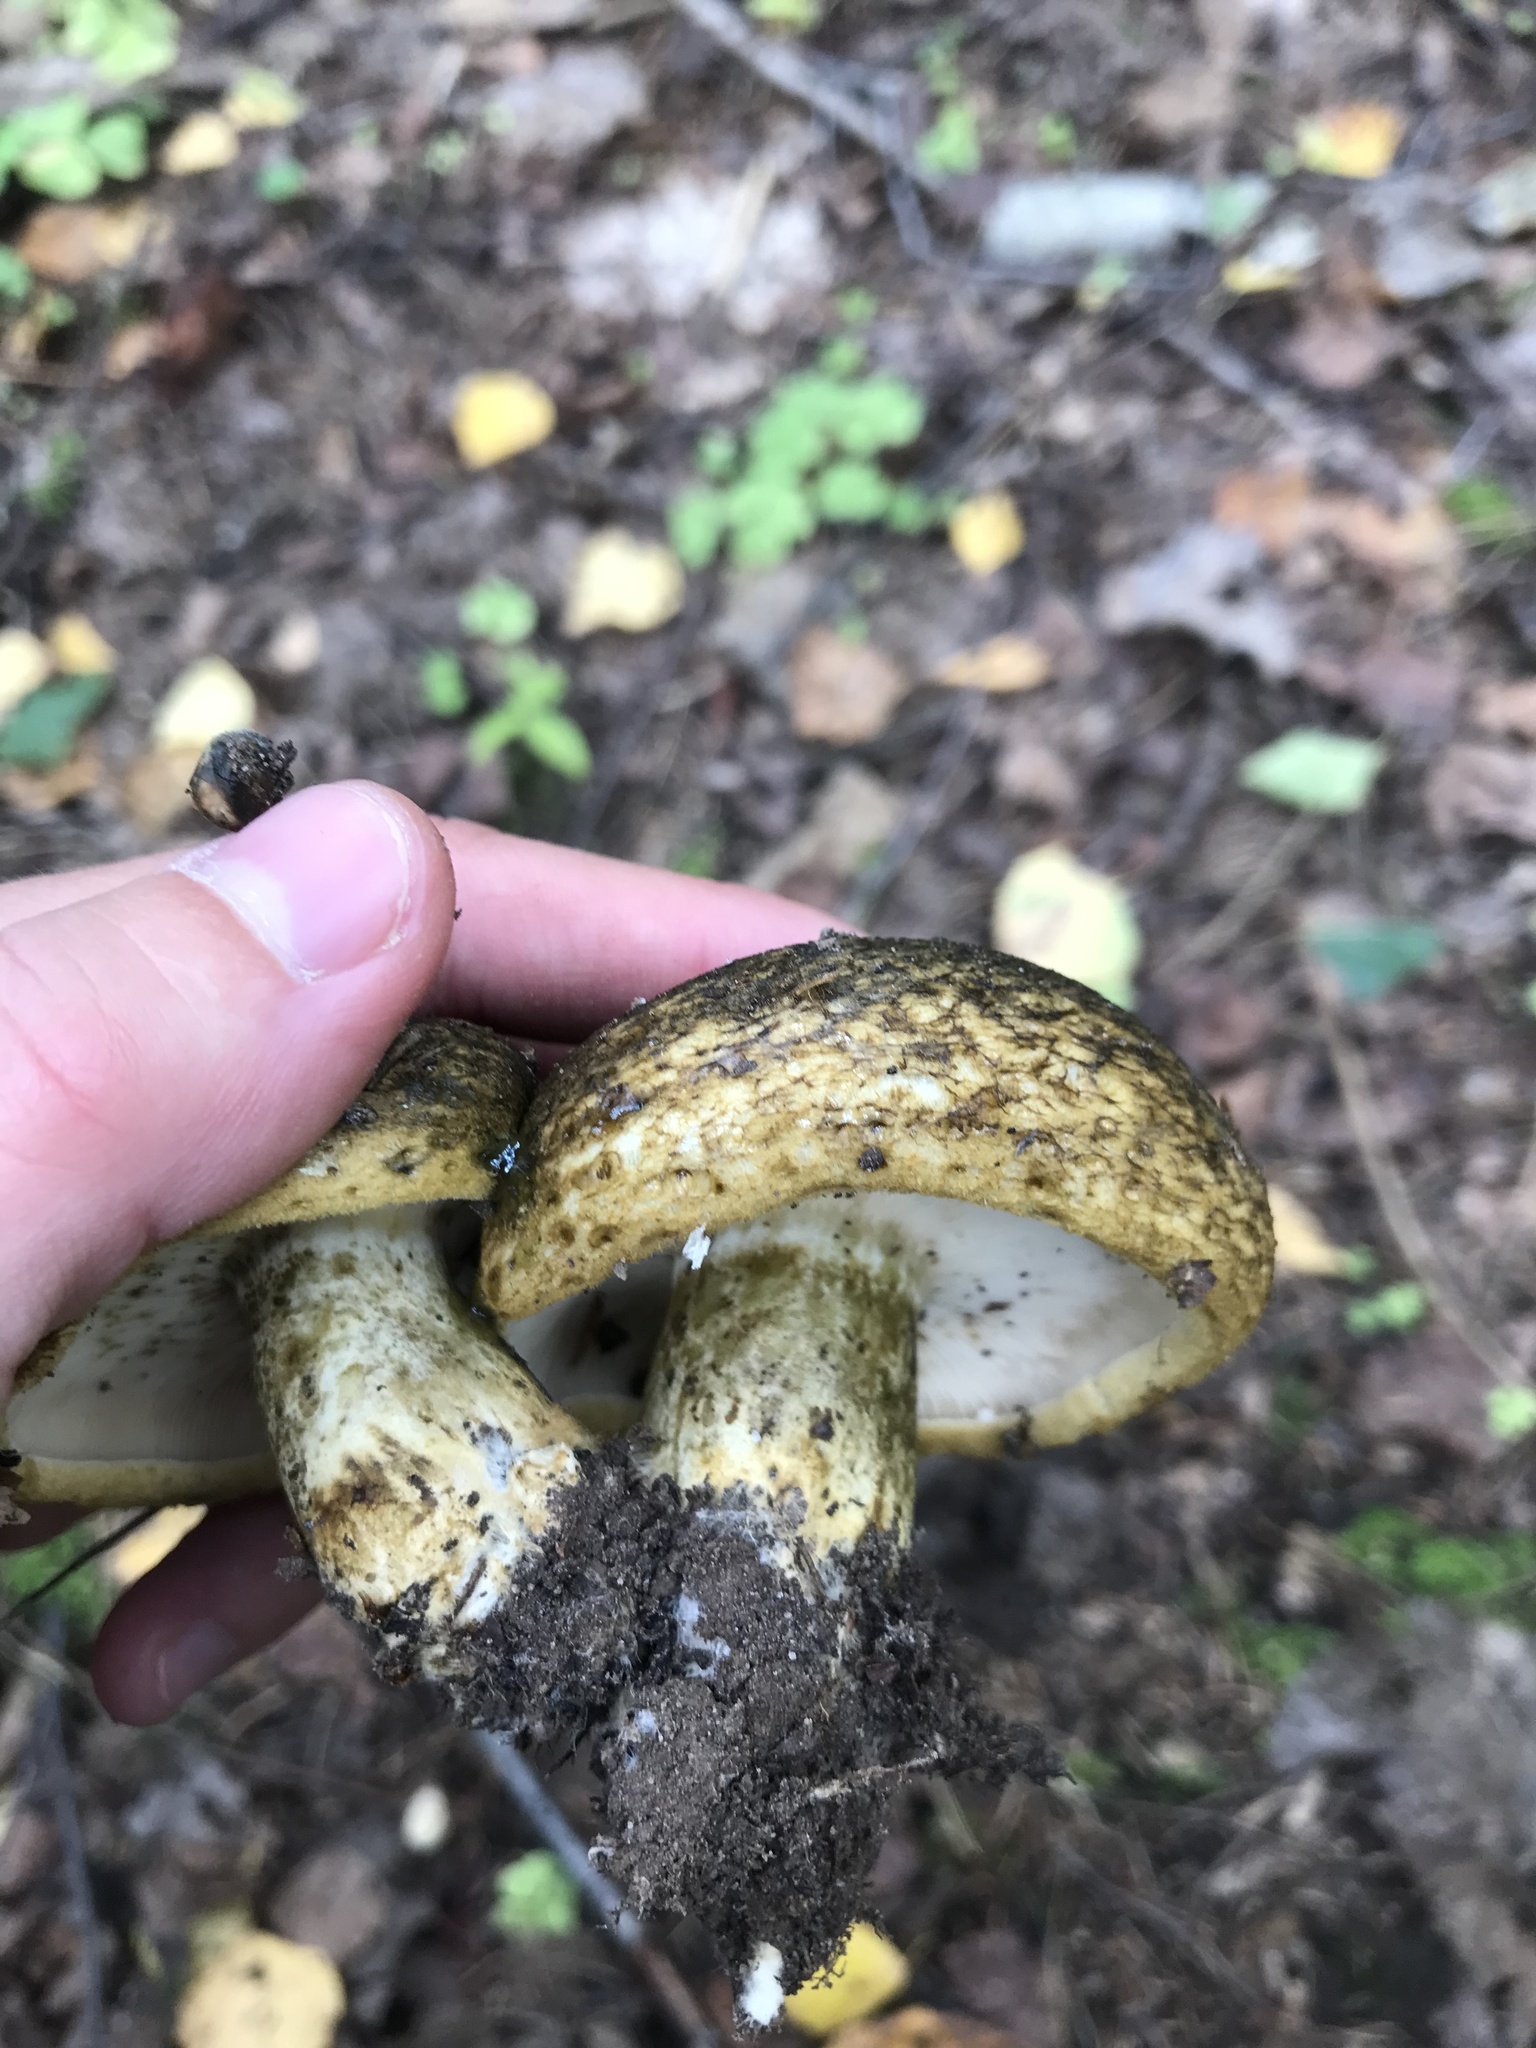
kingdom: Fungi
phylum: Basidiomycota
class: Agaricomycetes
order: Russulales
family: Russulaceae
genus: Lactarius
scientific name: Lactarius turpis
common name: Ugly milk-cap
